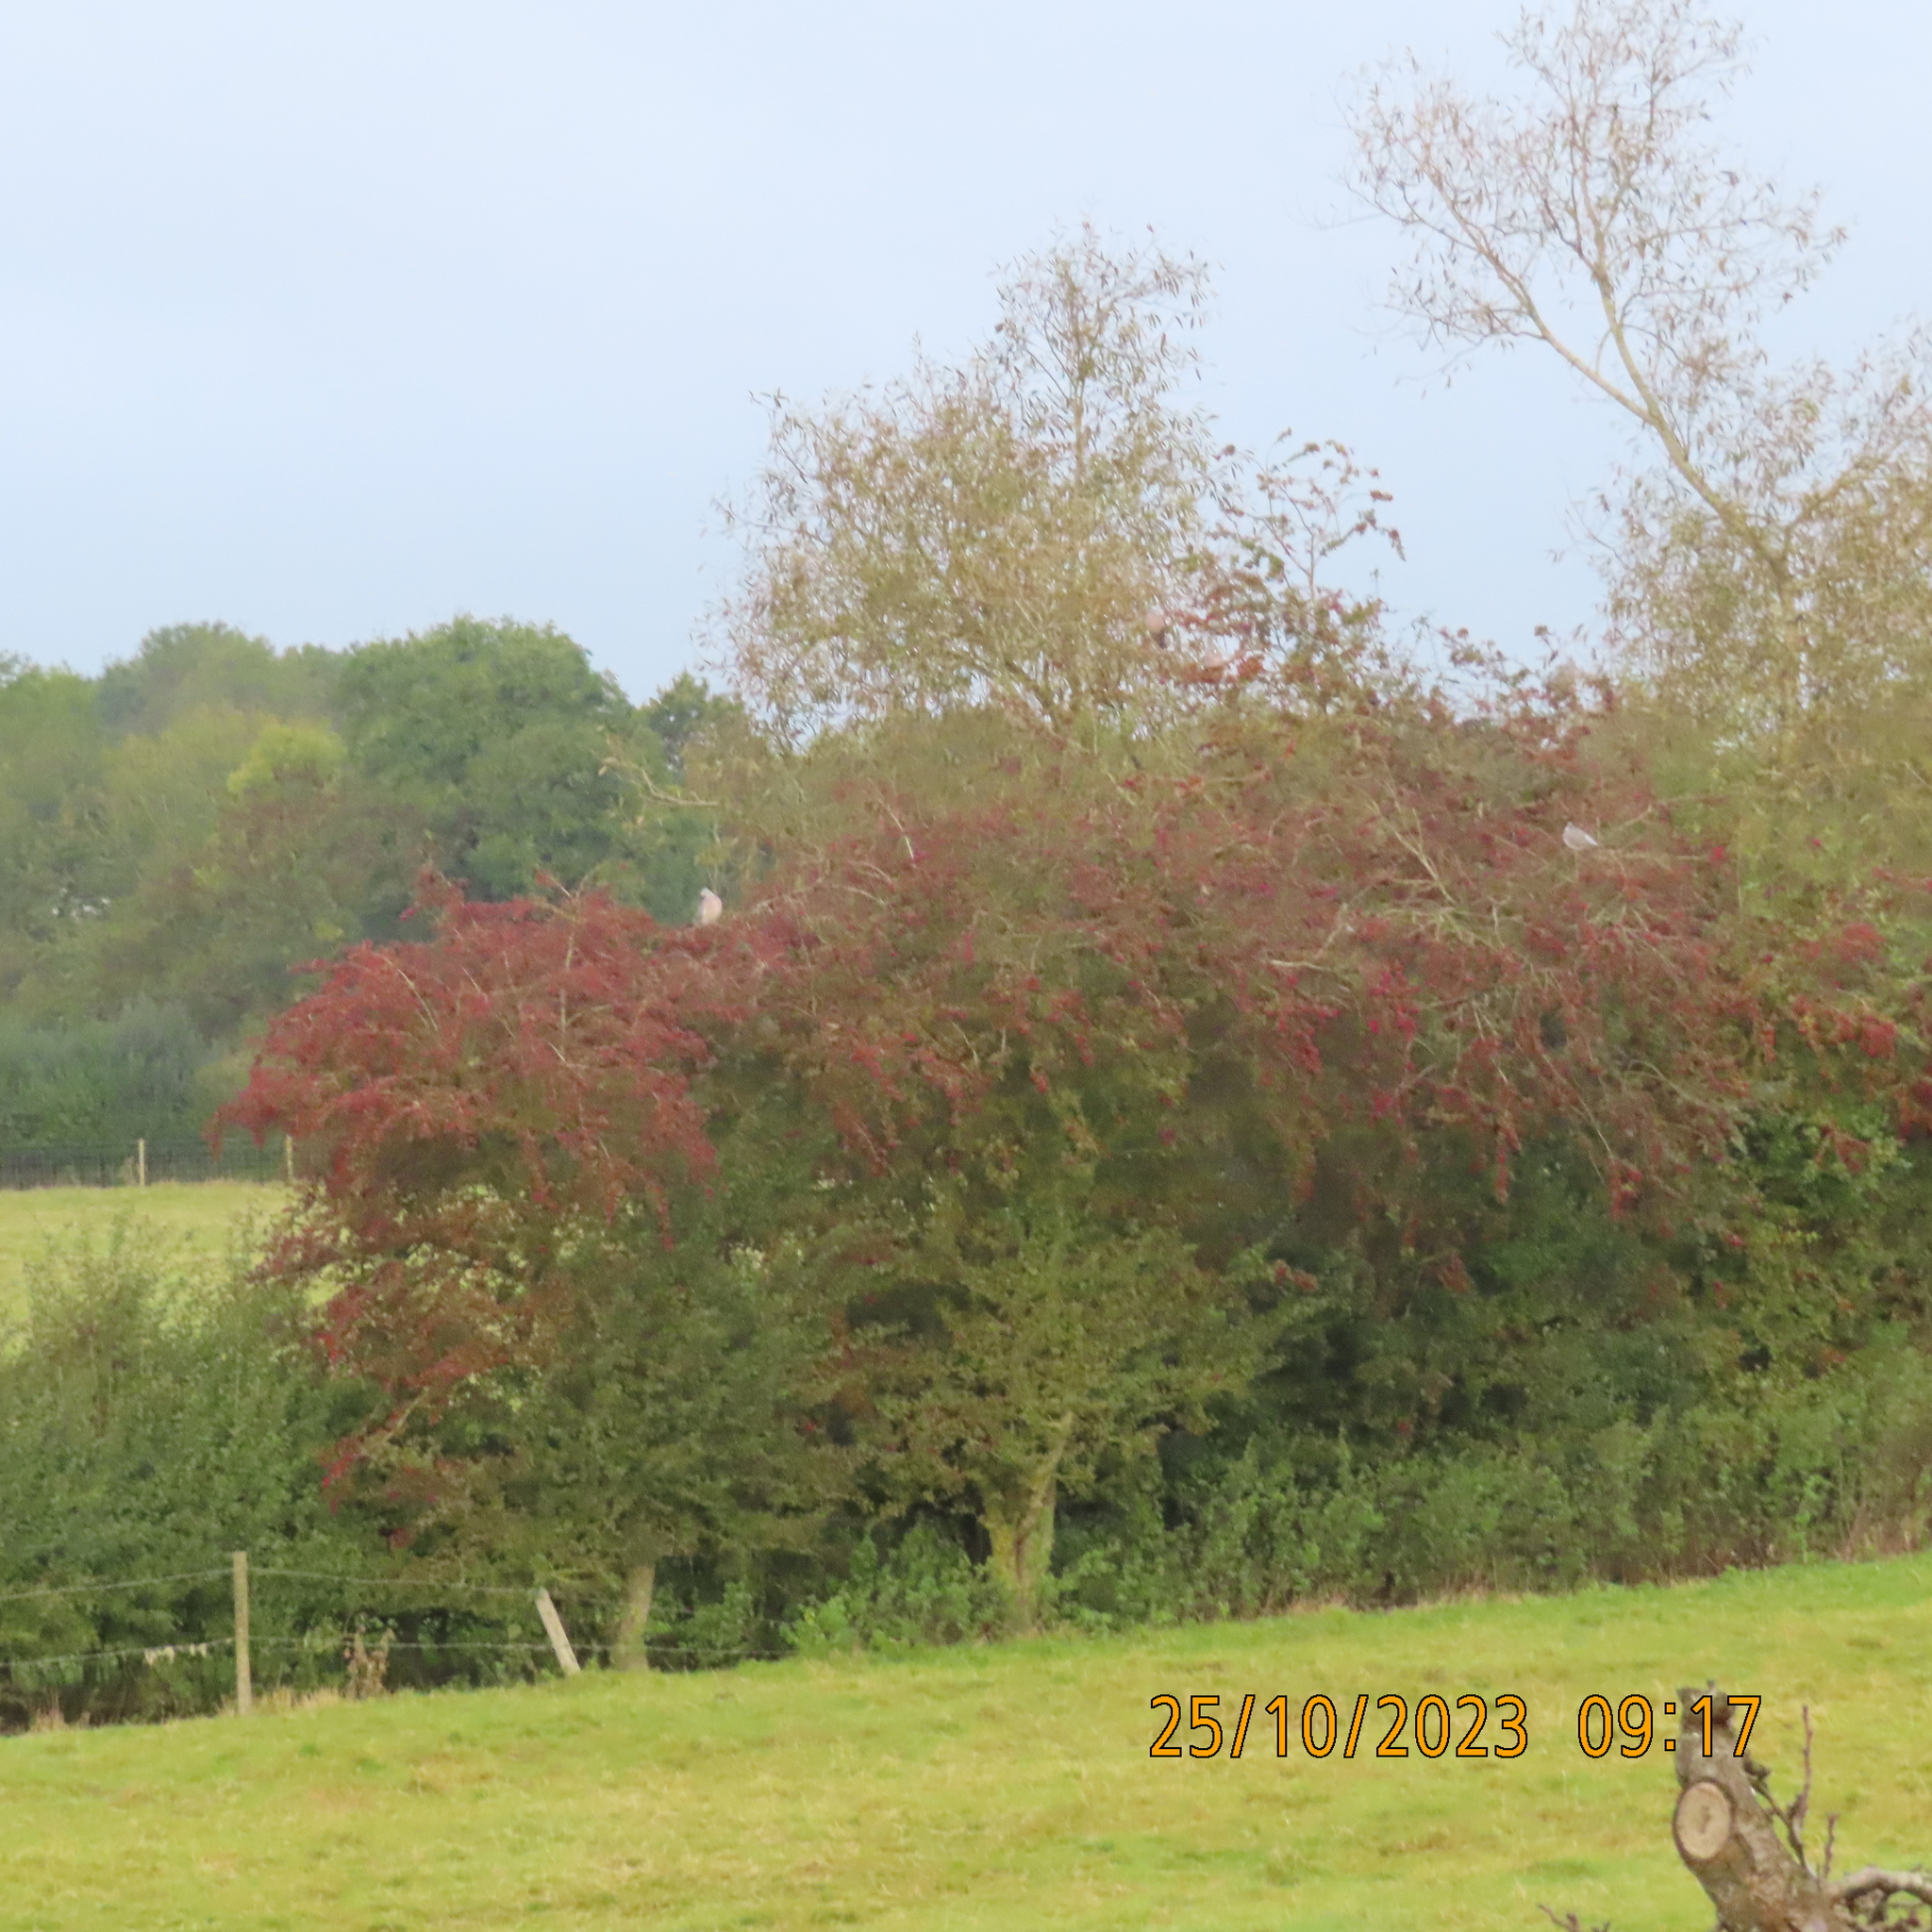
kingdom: Animalia
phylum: Chordata
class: Aves
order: Columbiformes
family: Columbidae
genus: Columba
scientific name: Columba palumbus
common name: Common wood pigeon
